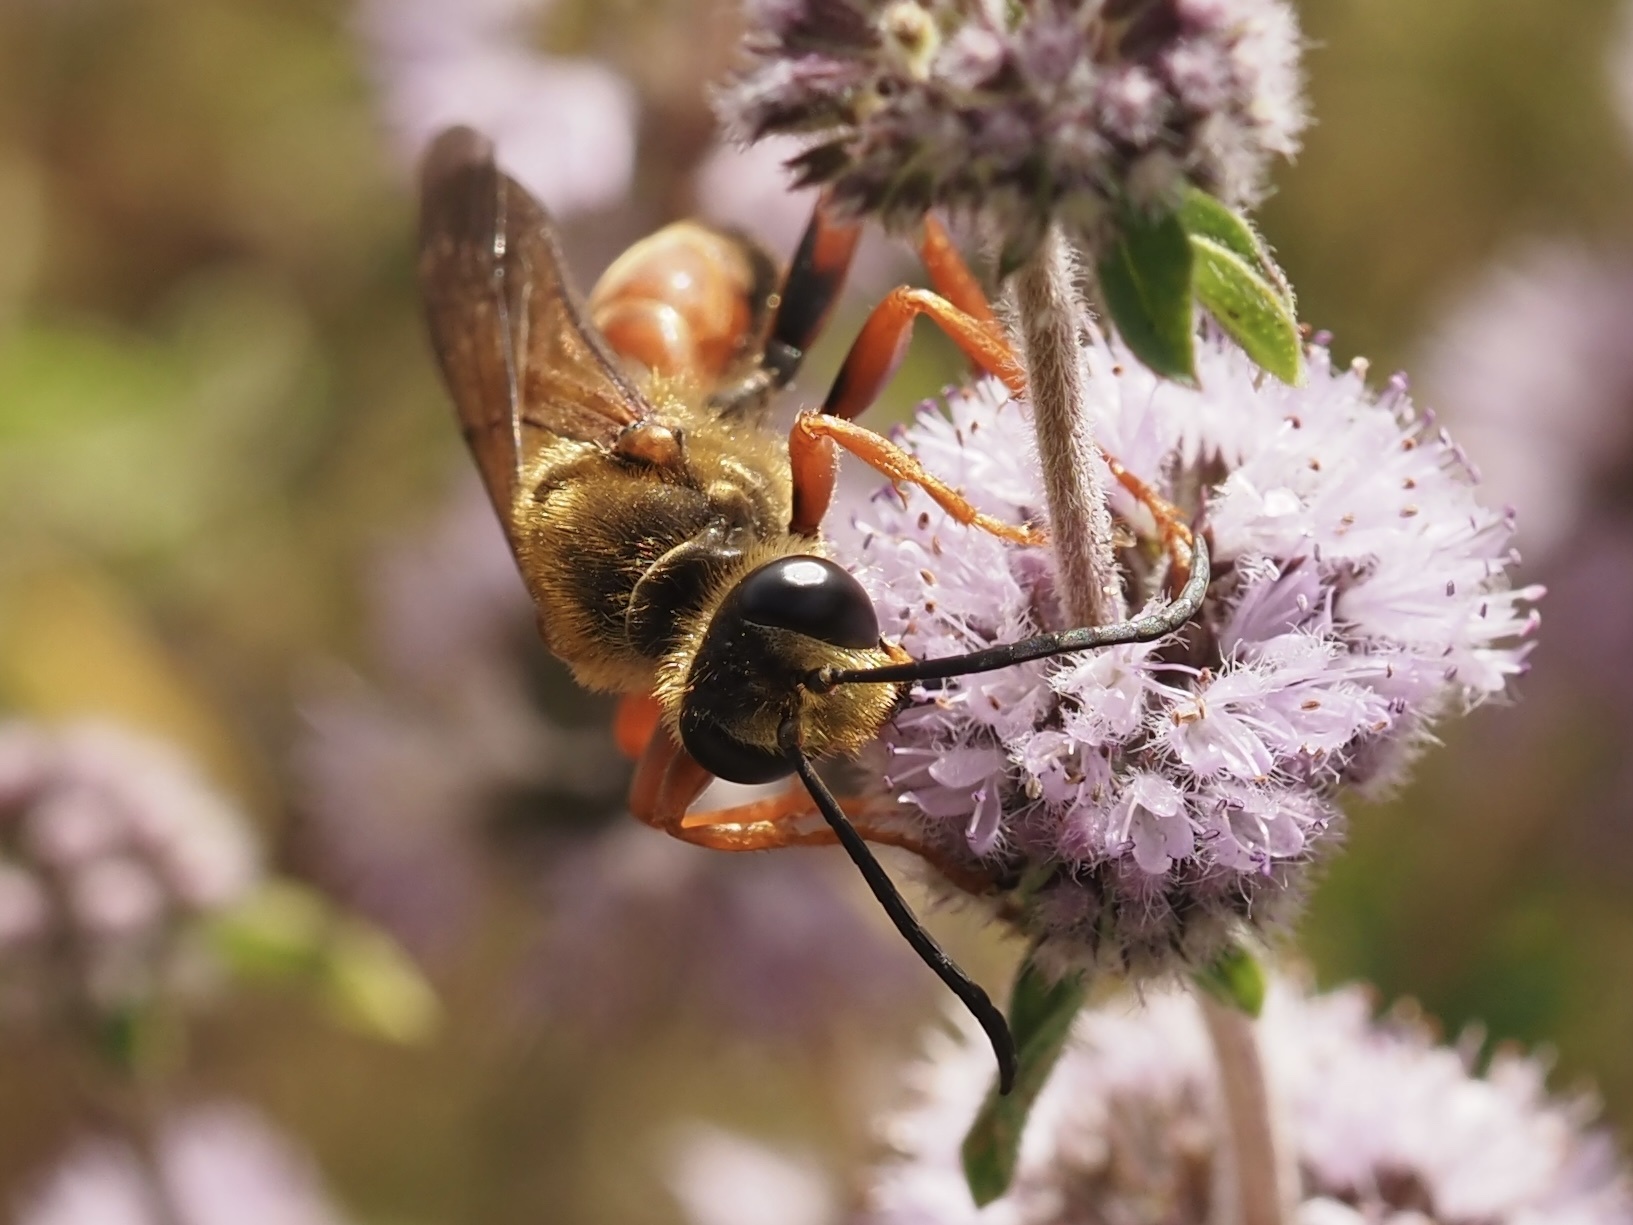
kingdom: Animalia
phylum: Arthropoda
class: Insecta
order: Hymenoptera
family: Sphecidae
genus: Sphex
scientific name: Sphex ichneumoneus
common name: Great golden digger wasp
